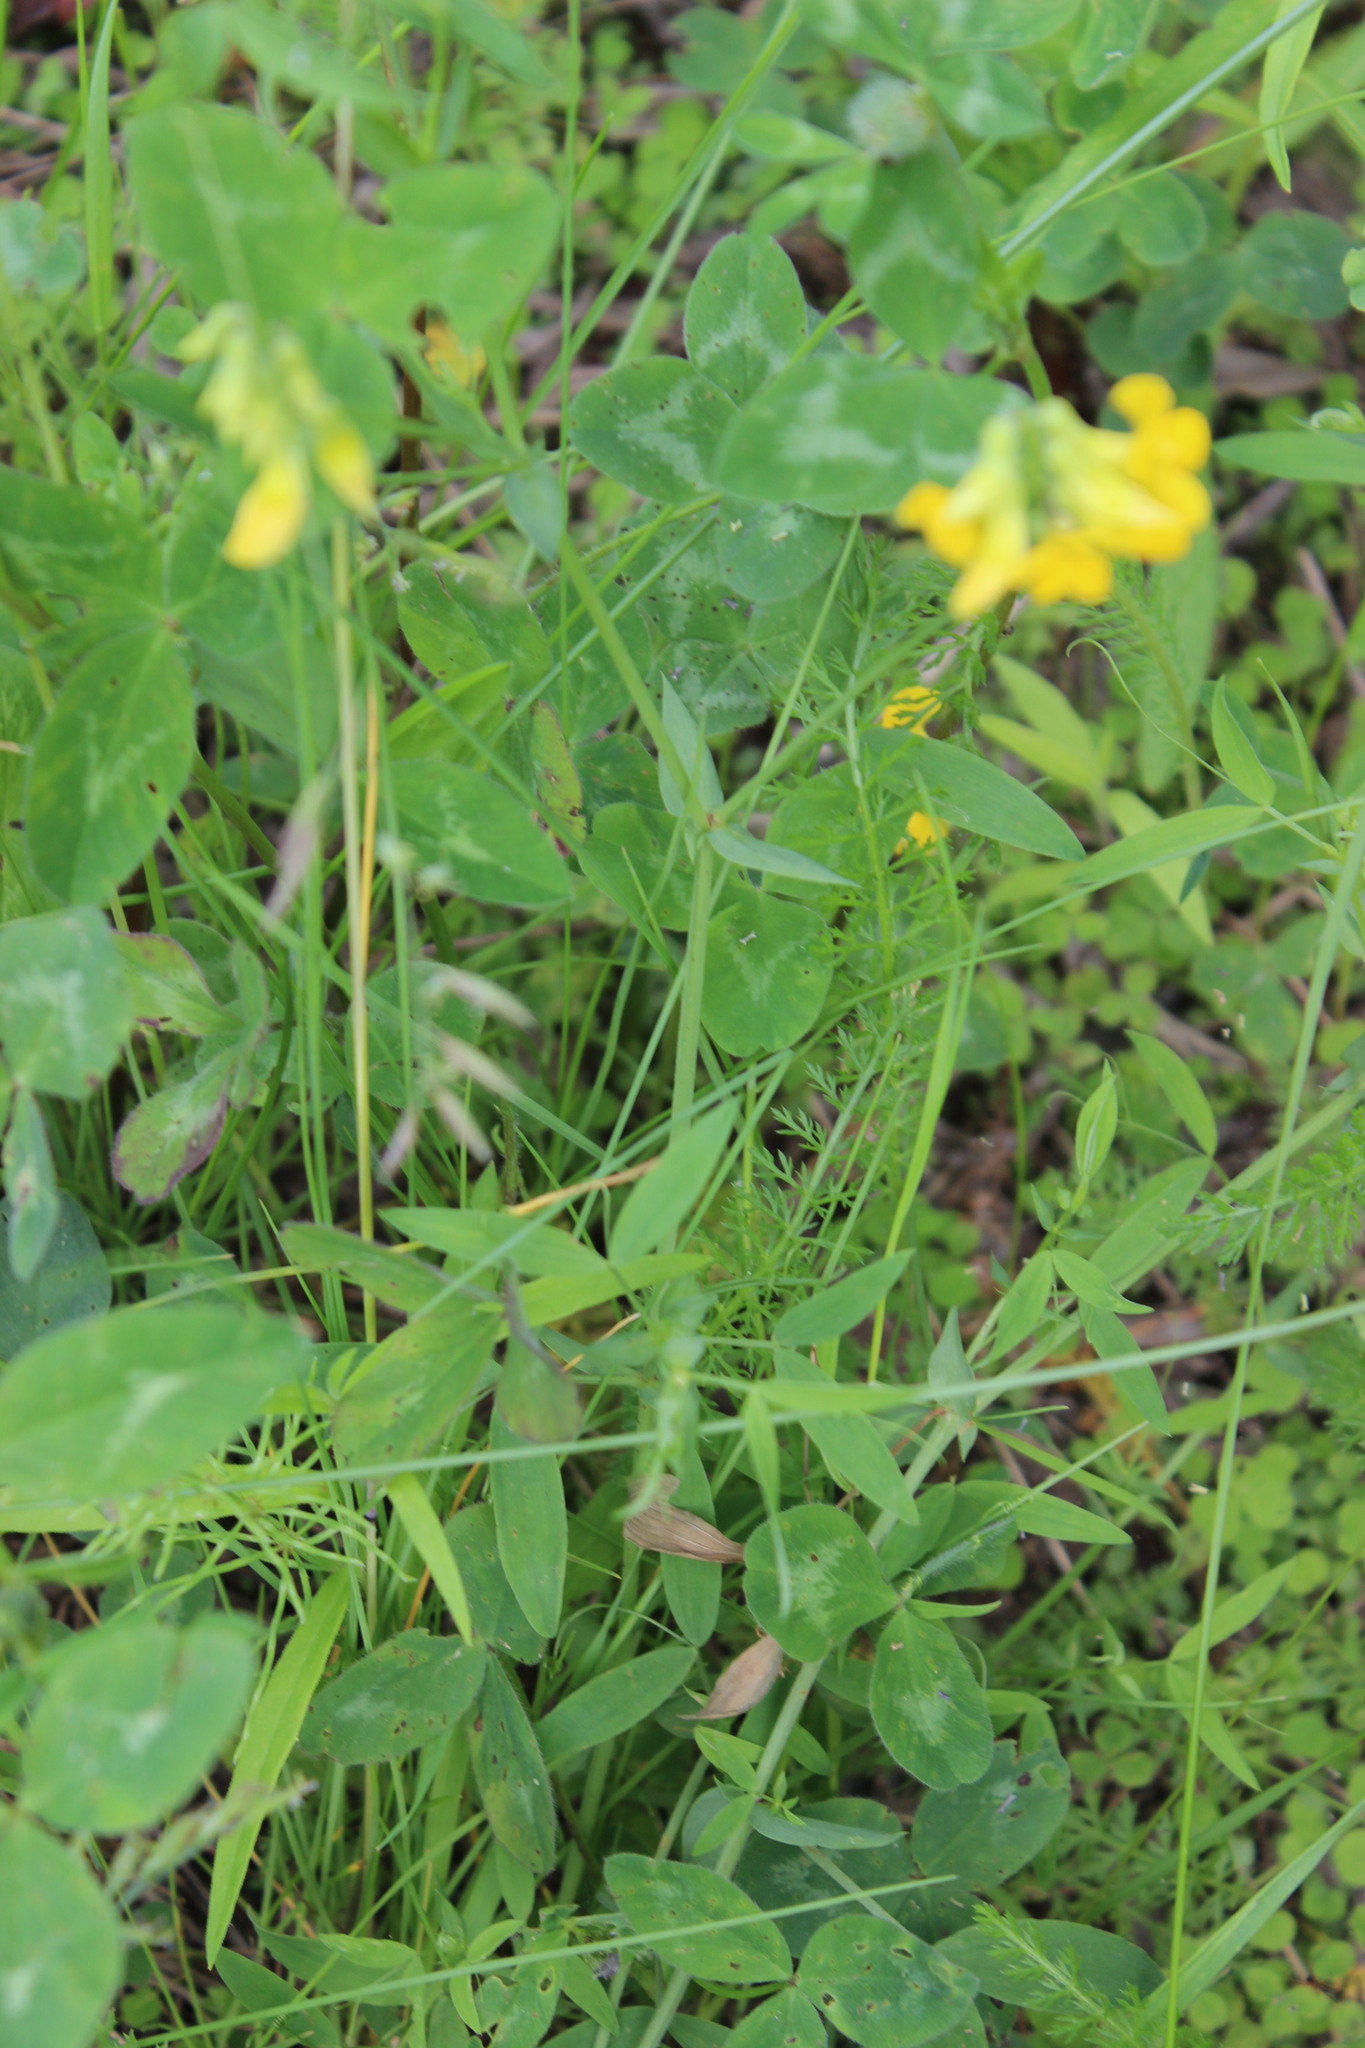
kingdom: Plantae
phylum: Tracheophyta
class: Magnoliopsida
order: Fabales
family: Fabaceae
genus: Lathyrus
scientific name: Lathyrus pratensis
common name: Meadow vetchling
